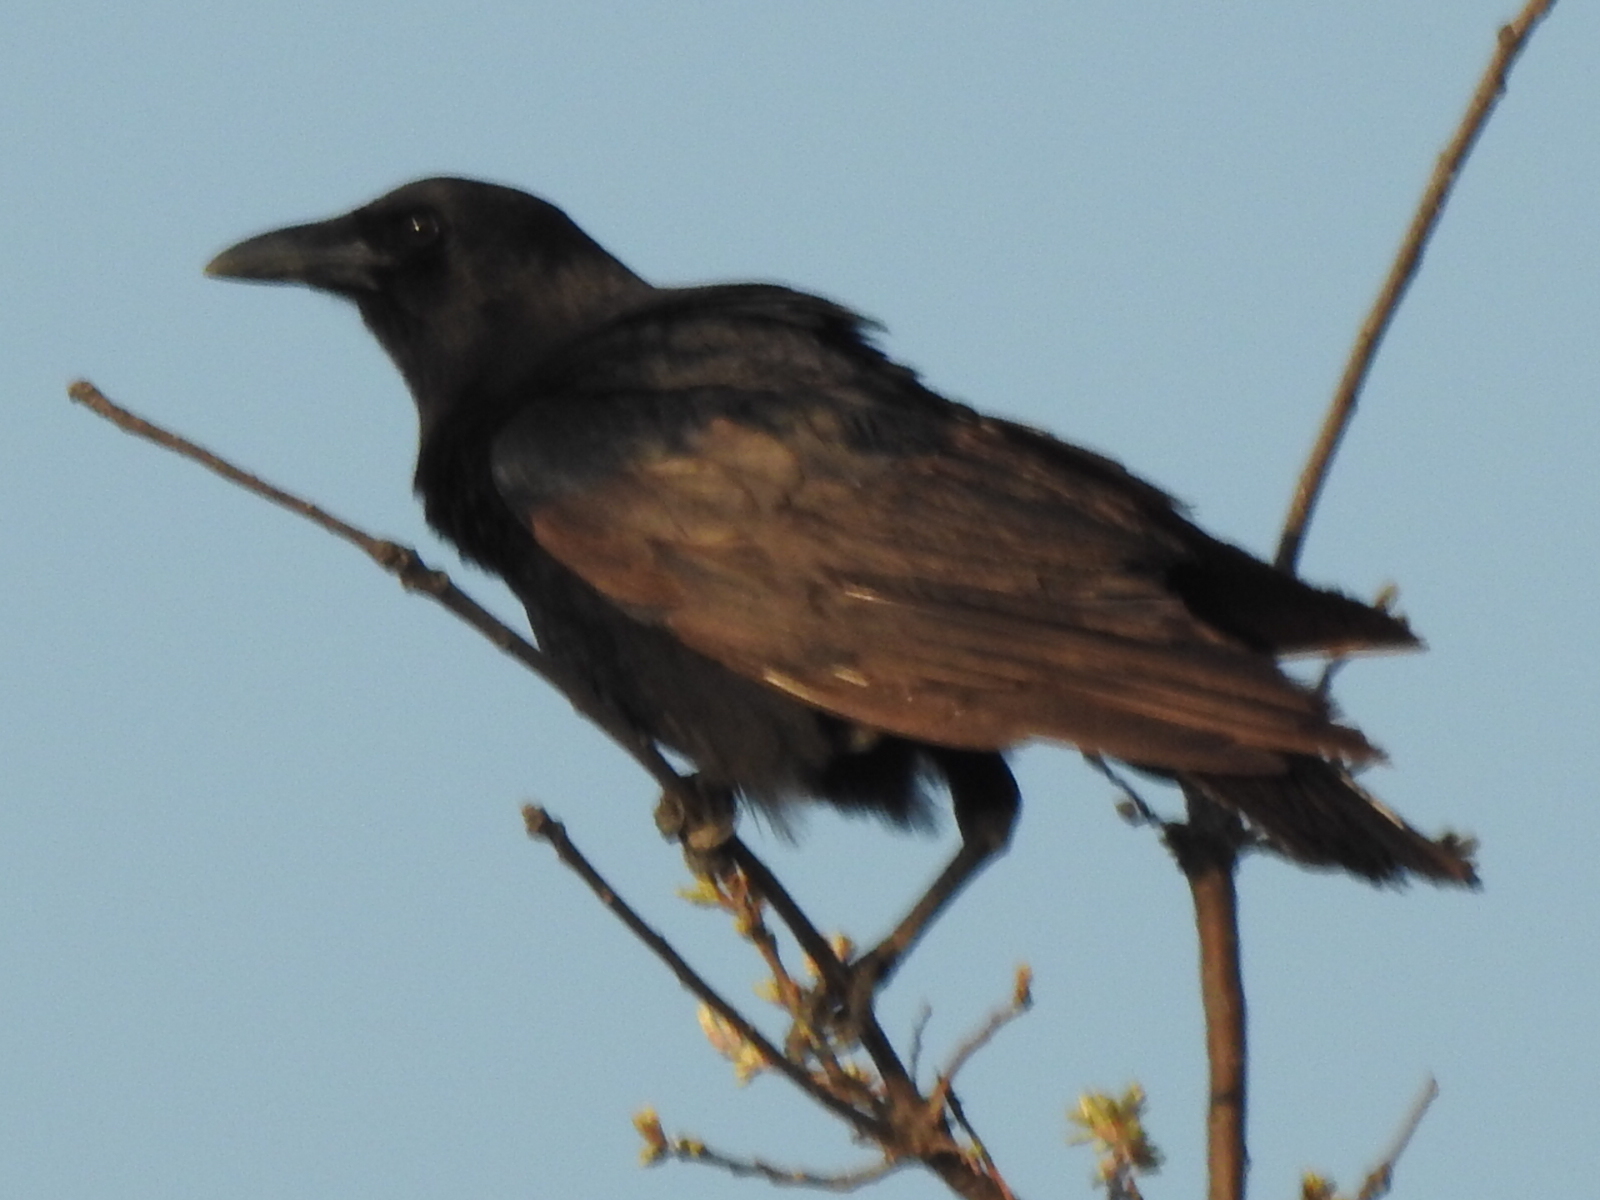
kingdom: Animalia
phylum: Chordata
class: Aves
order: Passeriformes
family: Corvidae
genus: Corvus
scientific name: Corvus brachyrhynchos
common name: American crow
